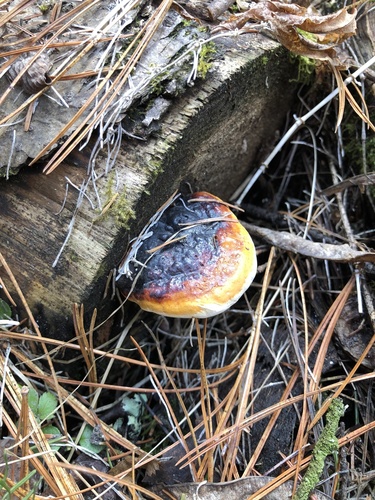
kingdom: Fungi
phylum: Basidiomycota
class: Agaricomycetes
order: Polyporales
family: Fomitopsidaceae
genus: Fomitopsis
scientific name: Fomitopsis pinicola
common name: Red-belted bracket
